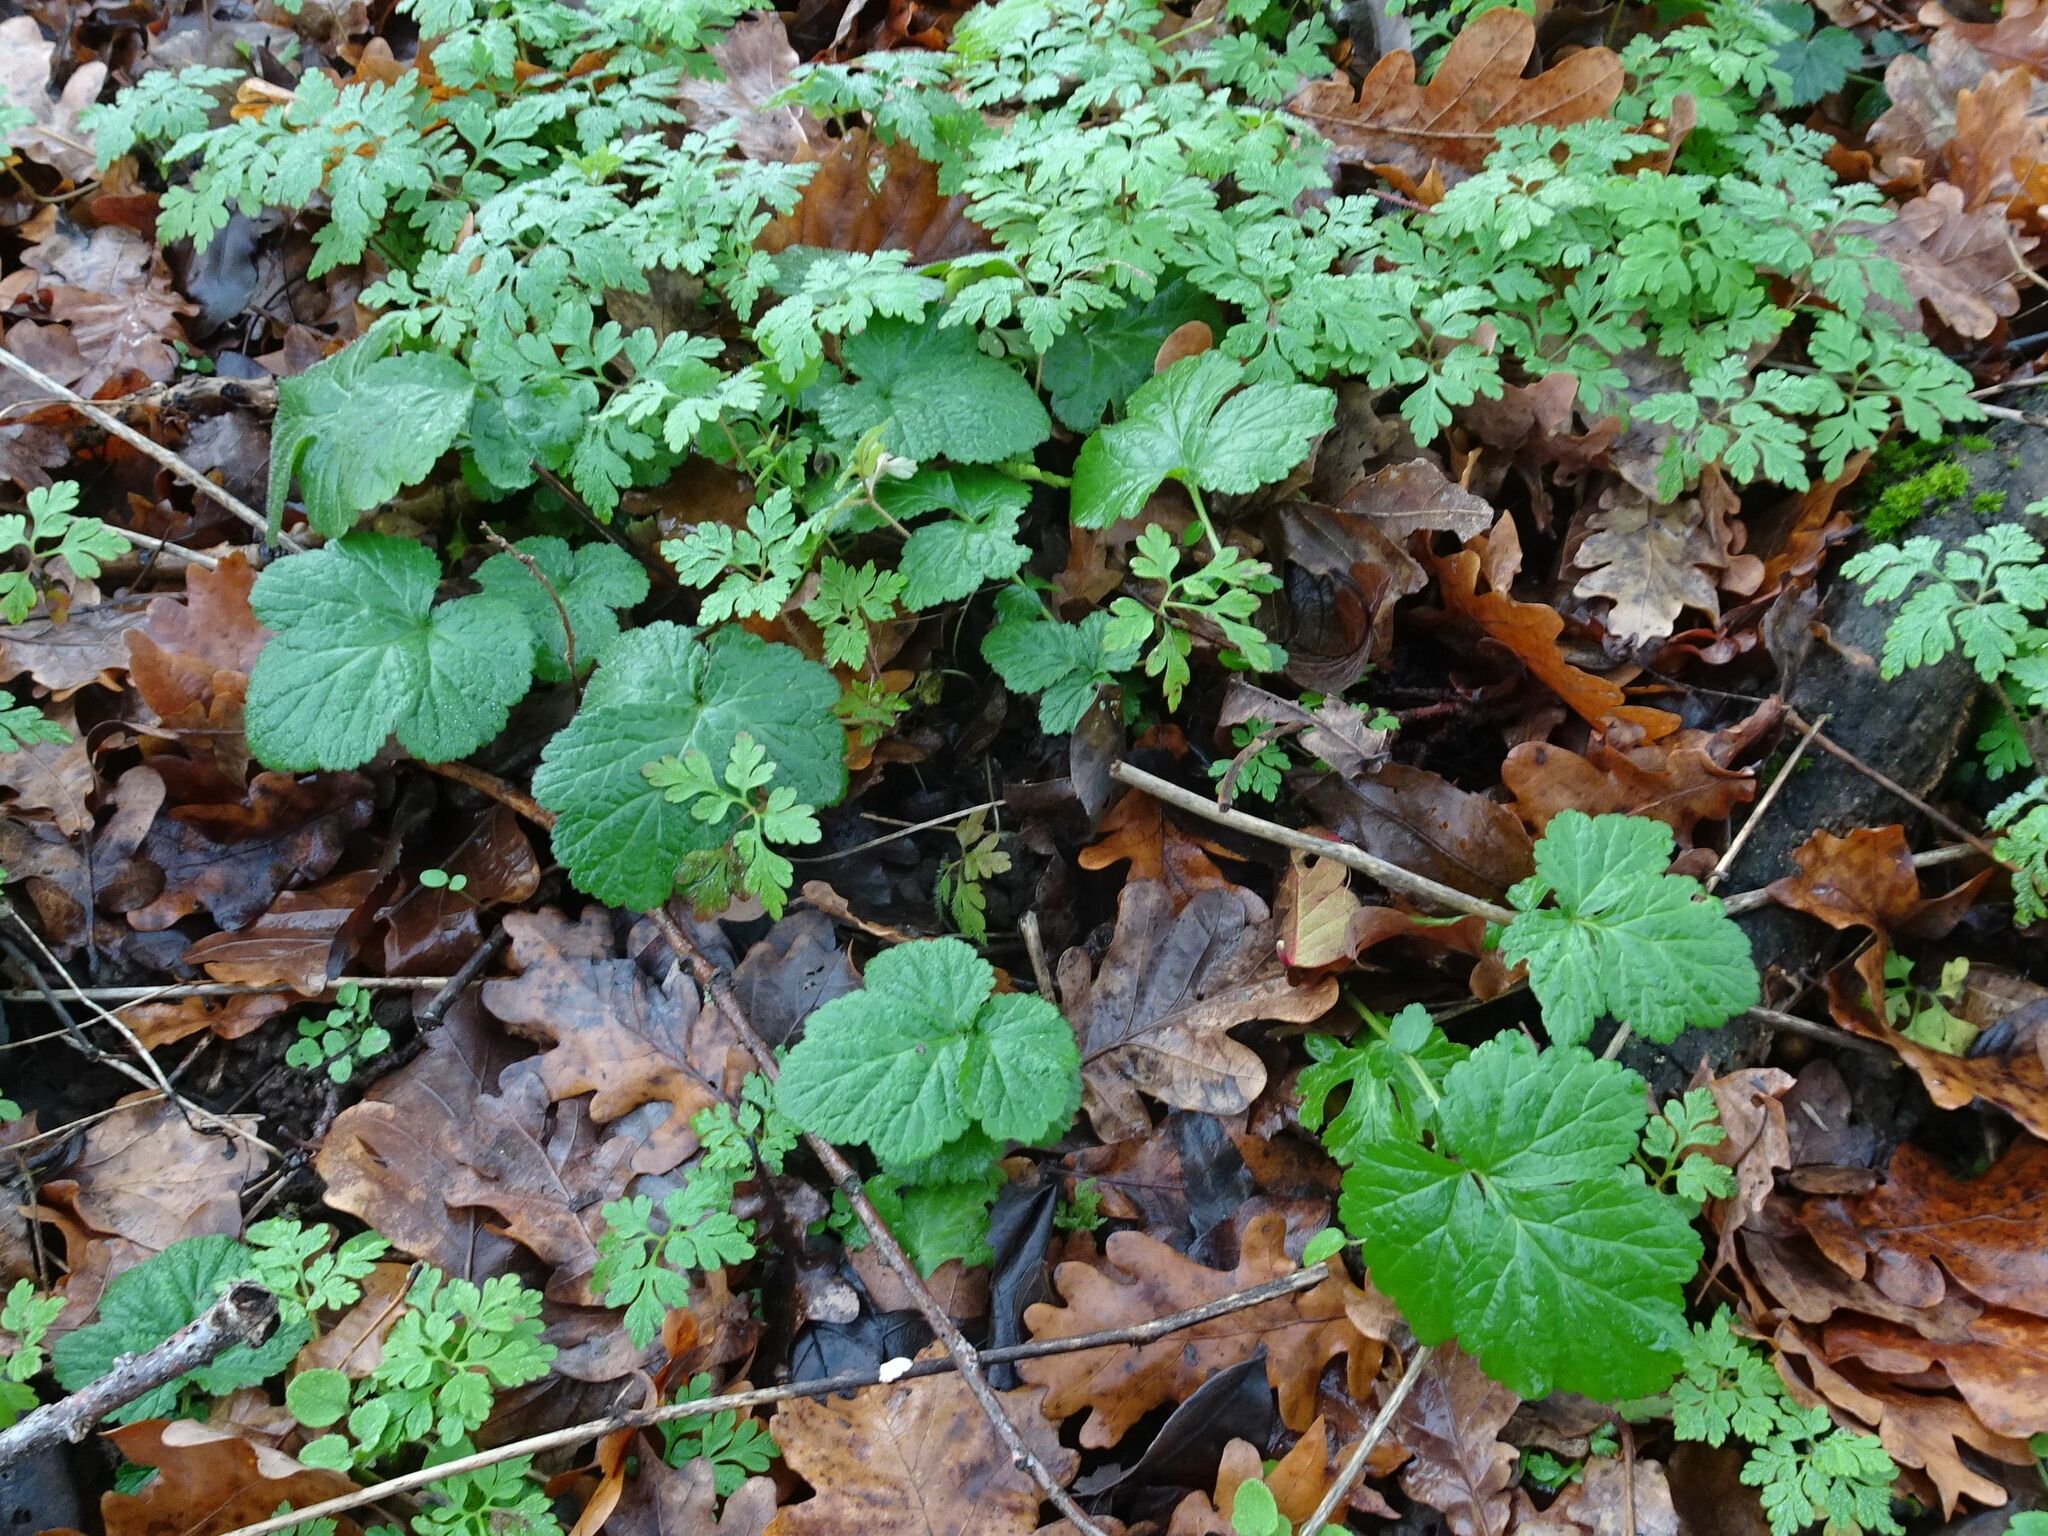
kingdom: Plantae
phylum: Tracheophyta
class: Magnoliopsida
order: Rosales
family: Rosaceae
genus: Geum
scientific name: Geum urbanum
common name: Wood avens
